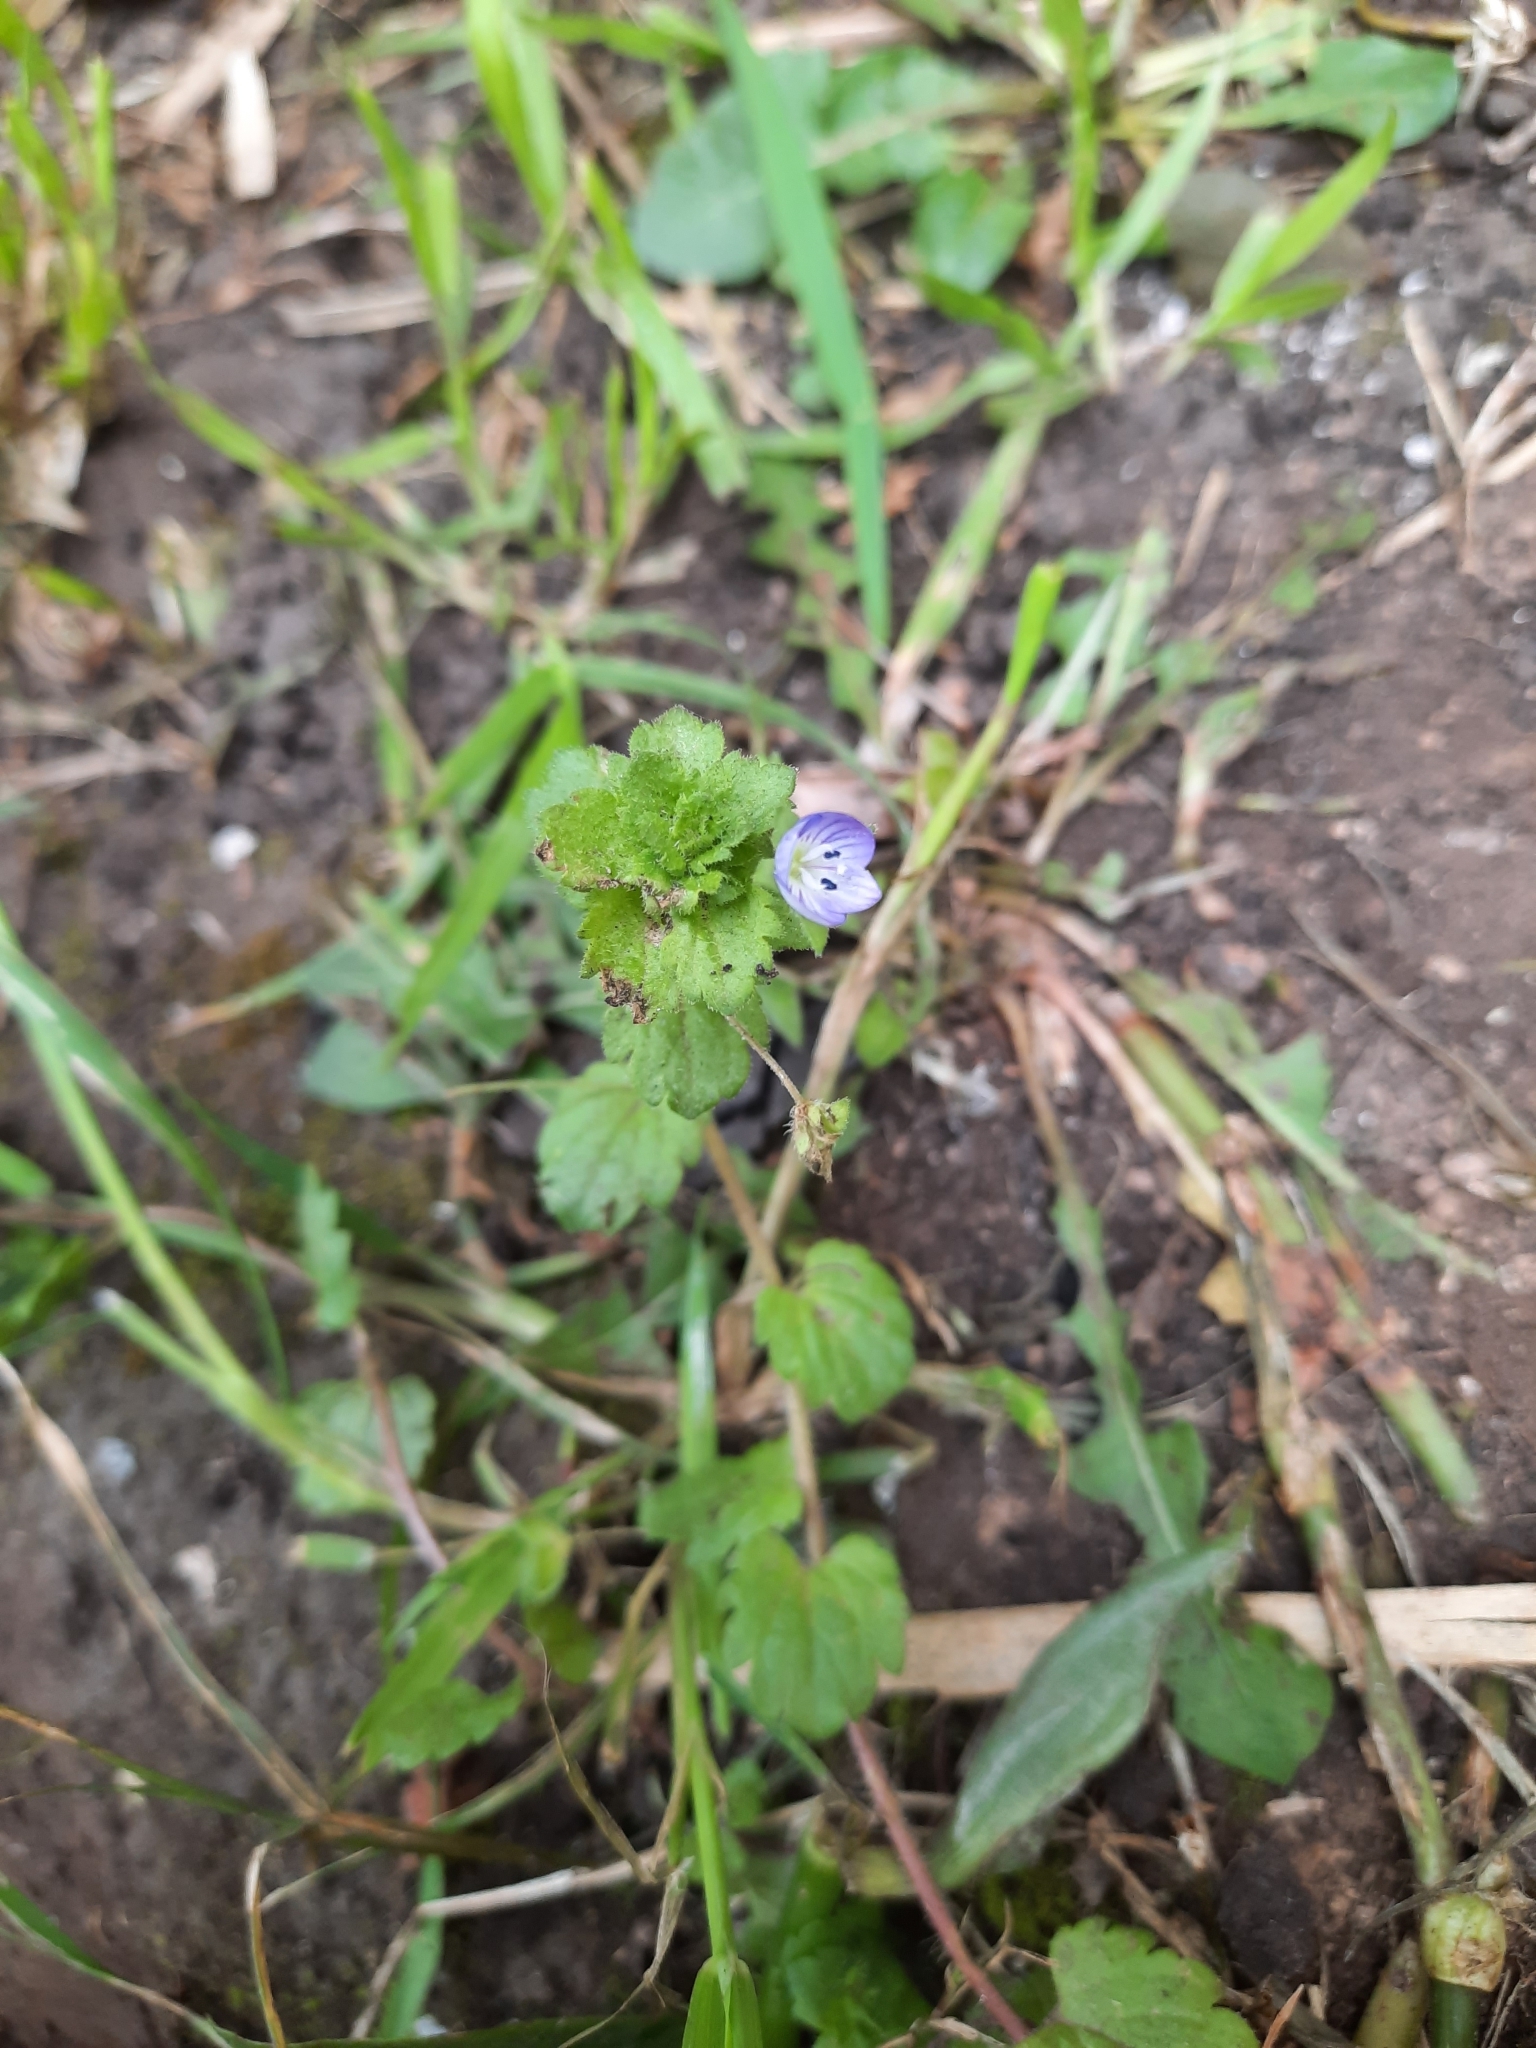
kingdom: Plantae
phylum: Tracheophyta
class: Magnoliopsida
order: Lamiales
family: Plantaginaceae
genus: Veronica
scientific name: Veronica persica
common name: Common field-speedwell
